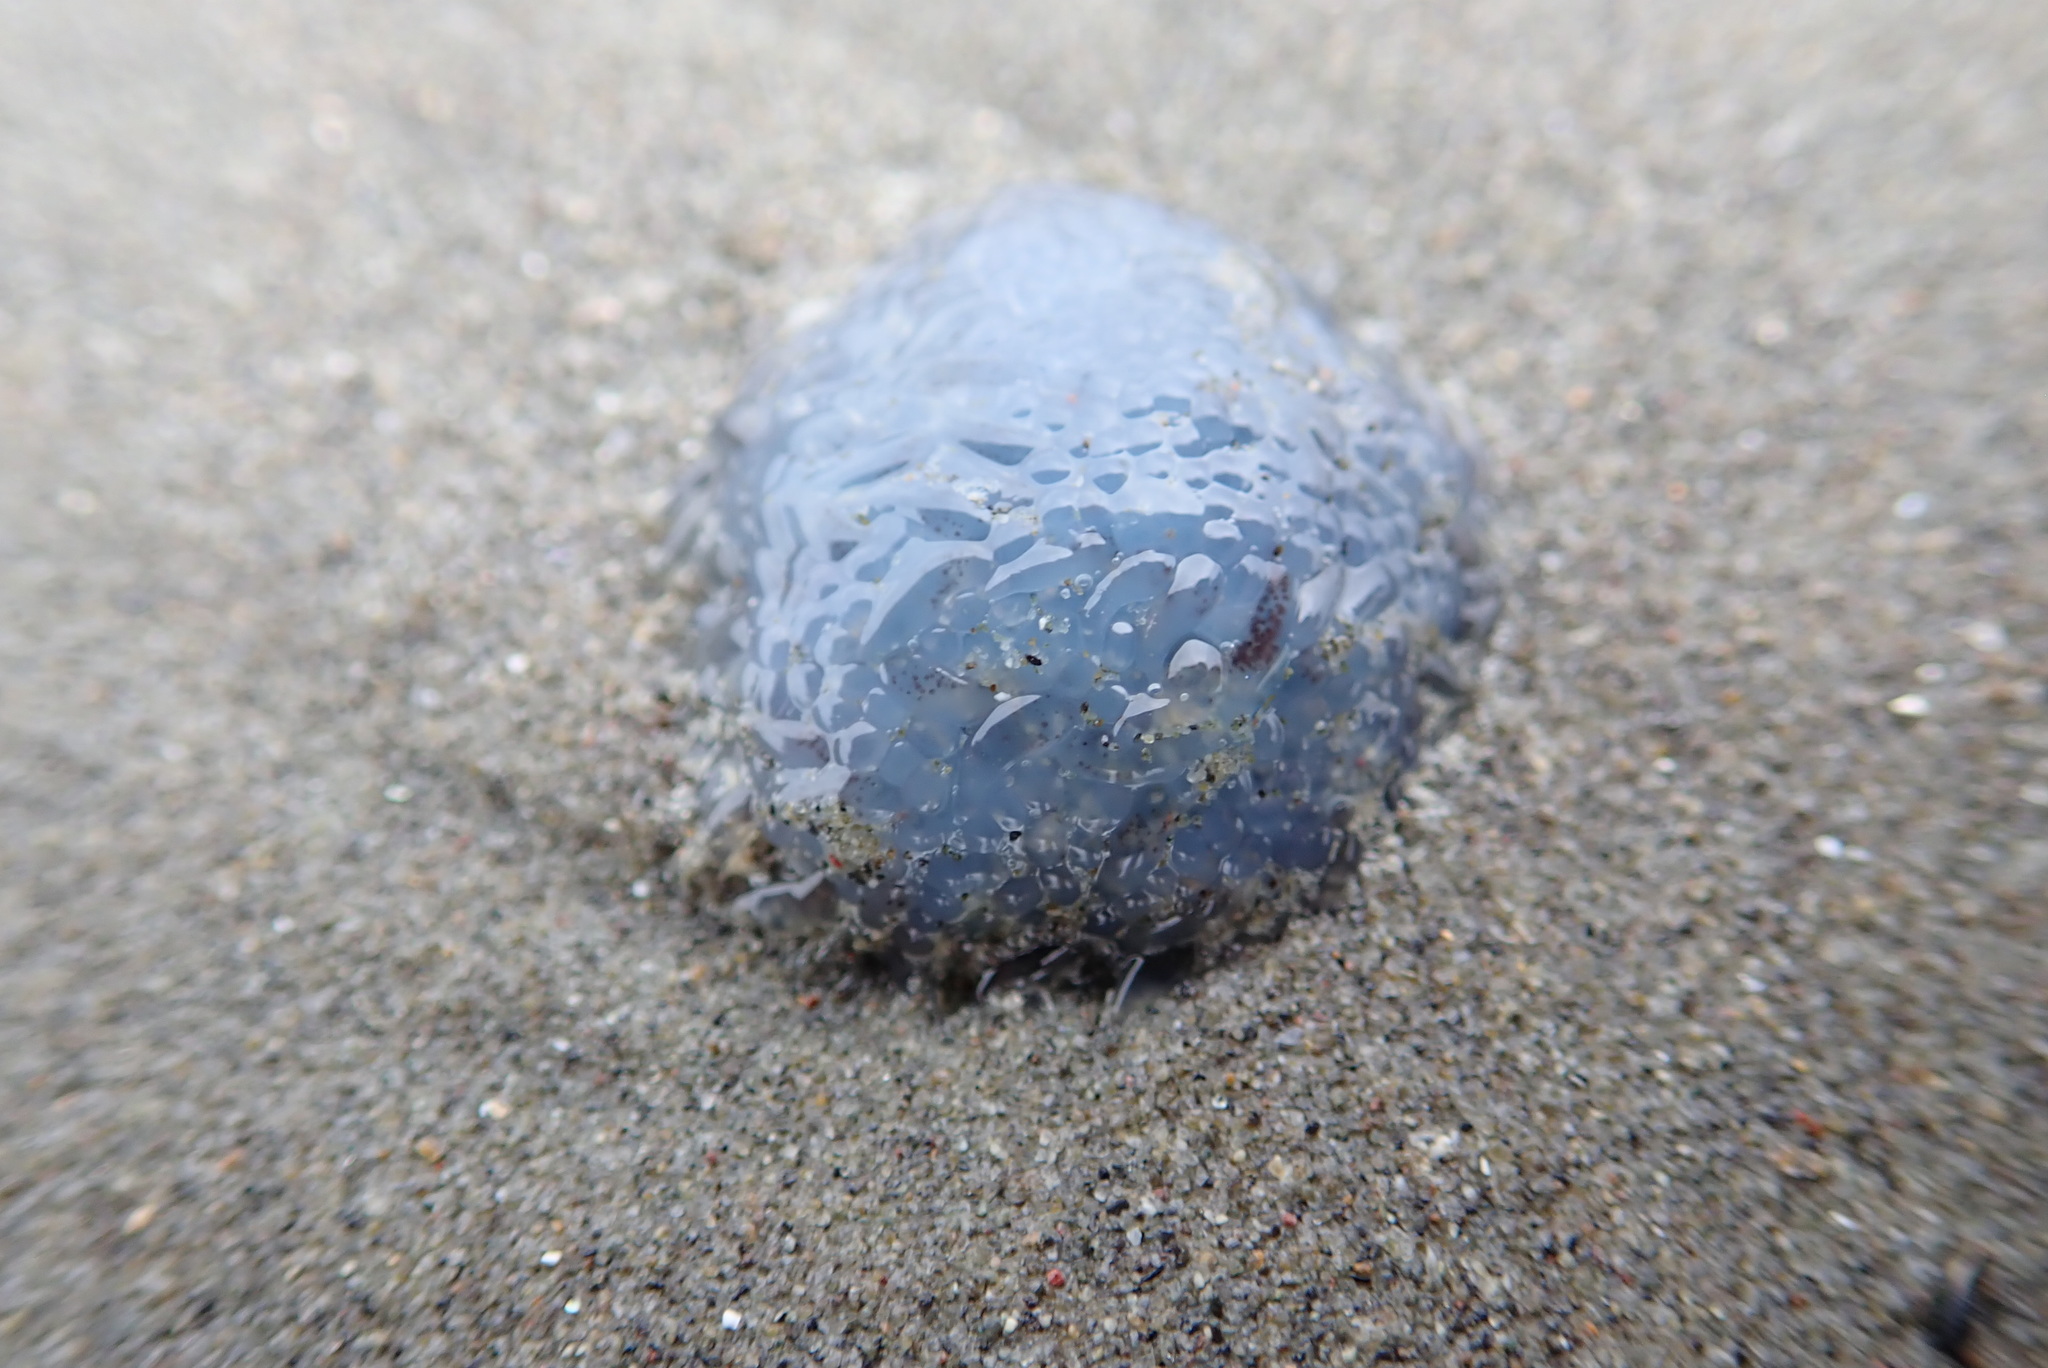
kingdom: Animalia
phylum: Cnidaria
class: Hydrozoa
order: Siphonophorae
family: Physaliidae
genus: Physalia
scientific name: Physalia physalis
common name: Portuguese man-of-war
